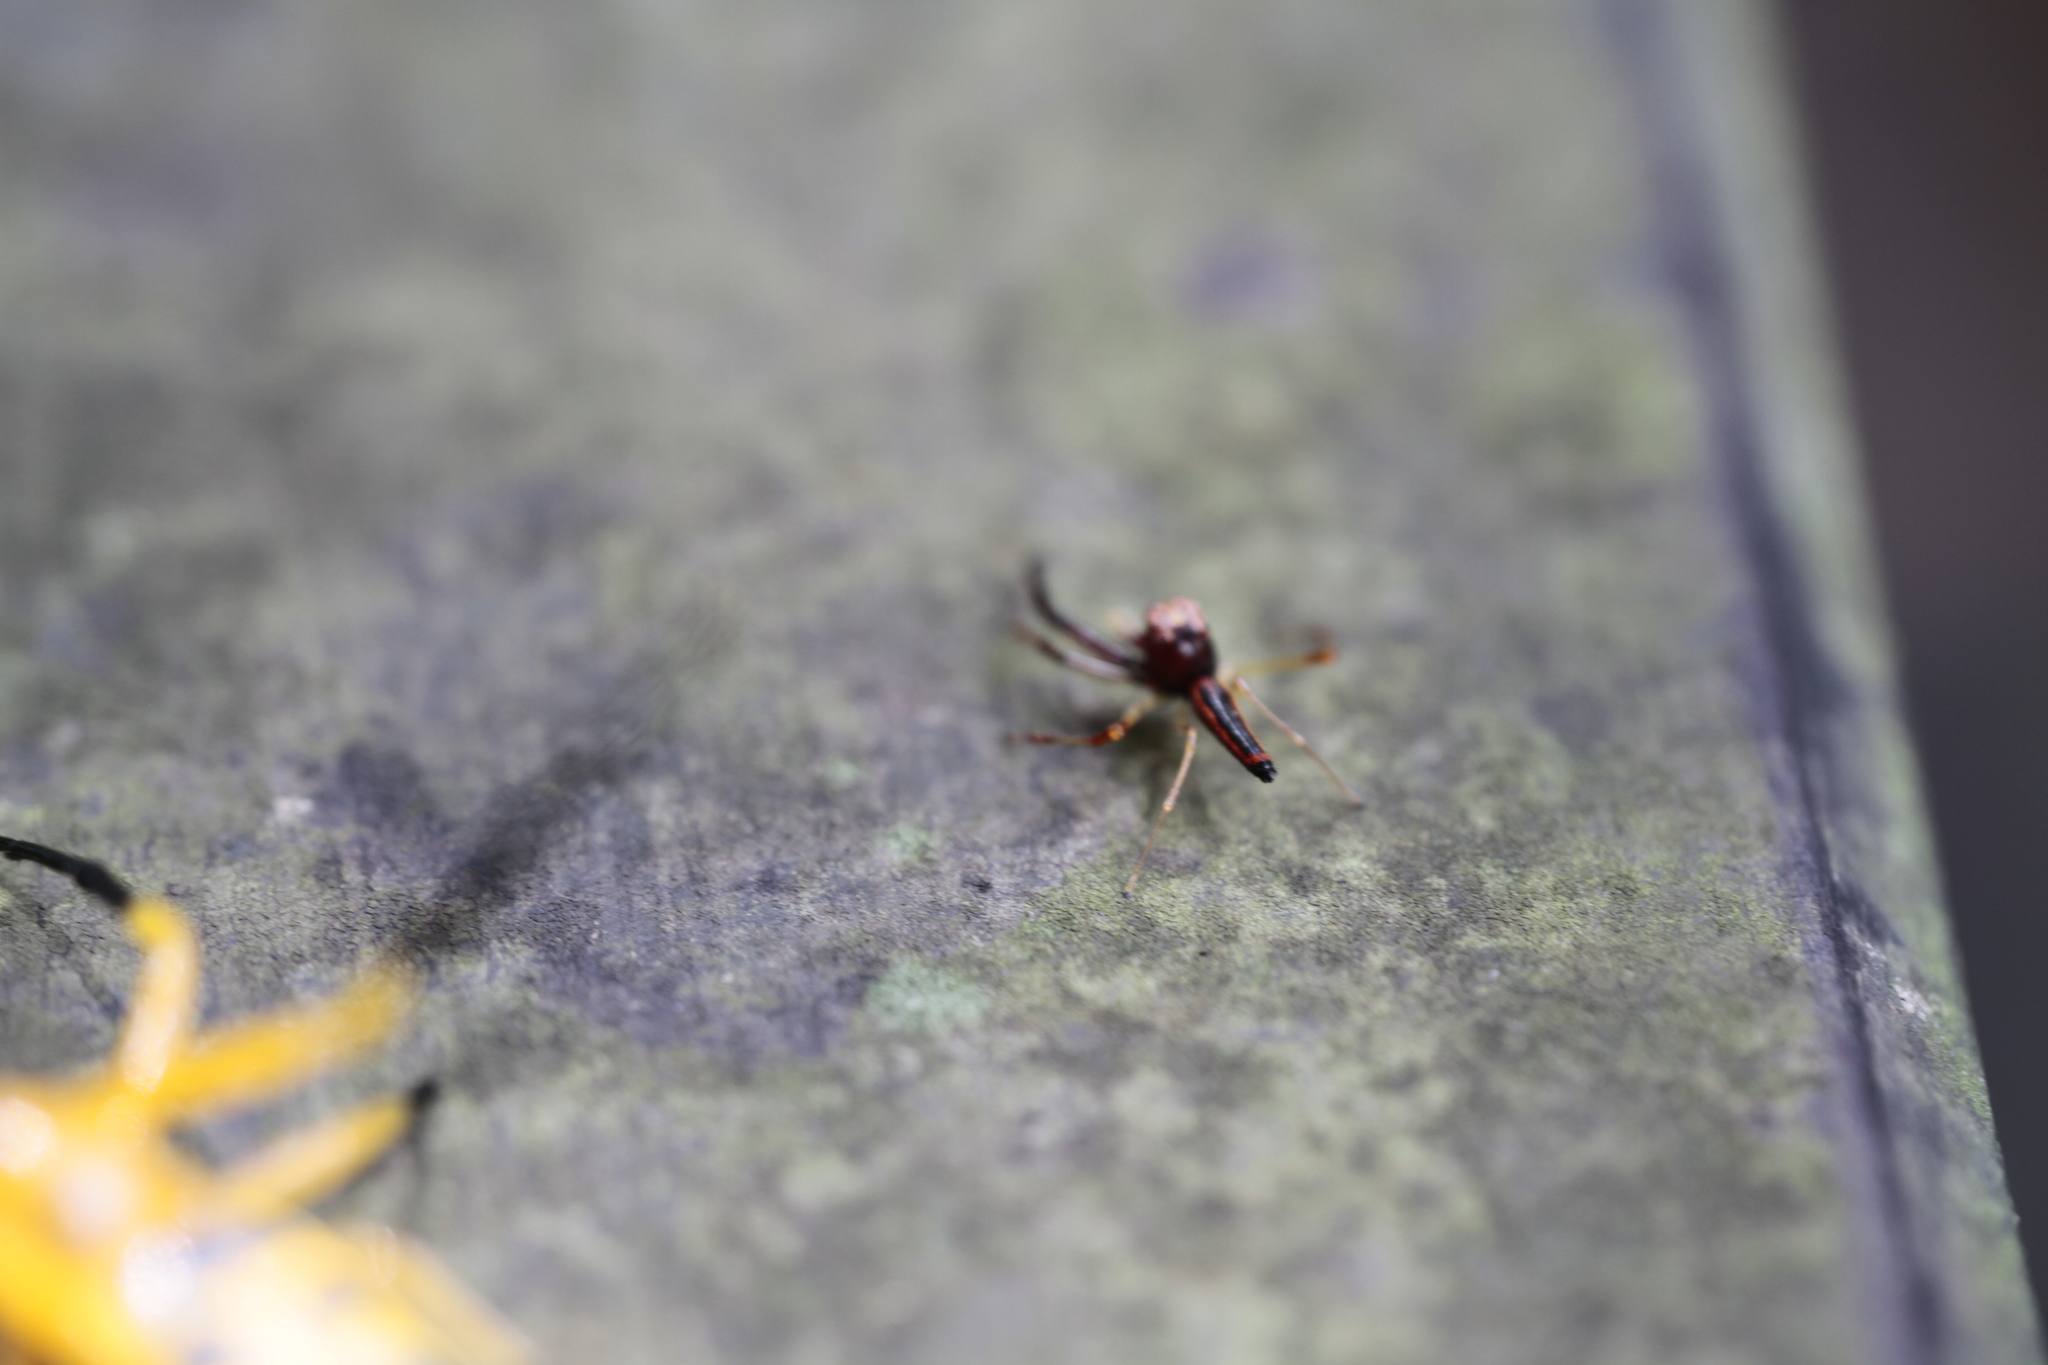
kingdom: Animalia
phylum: Arthropoda
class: Arachnida
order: Araneae
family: Salticidae
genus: Viciria
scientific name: Viciria pavesii
